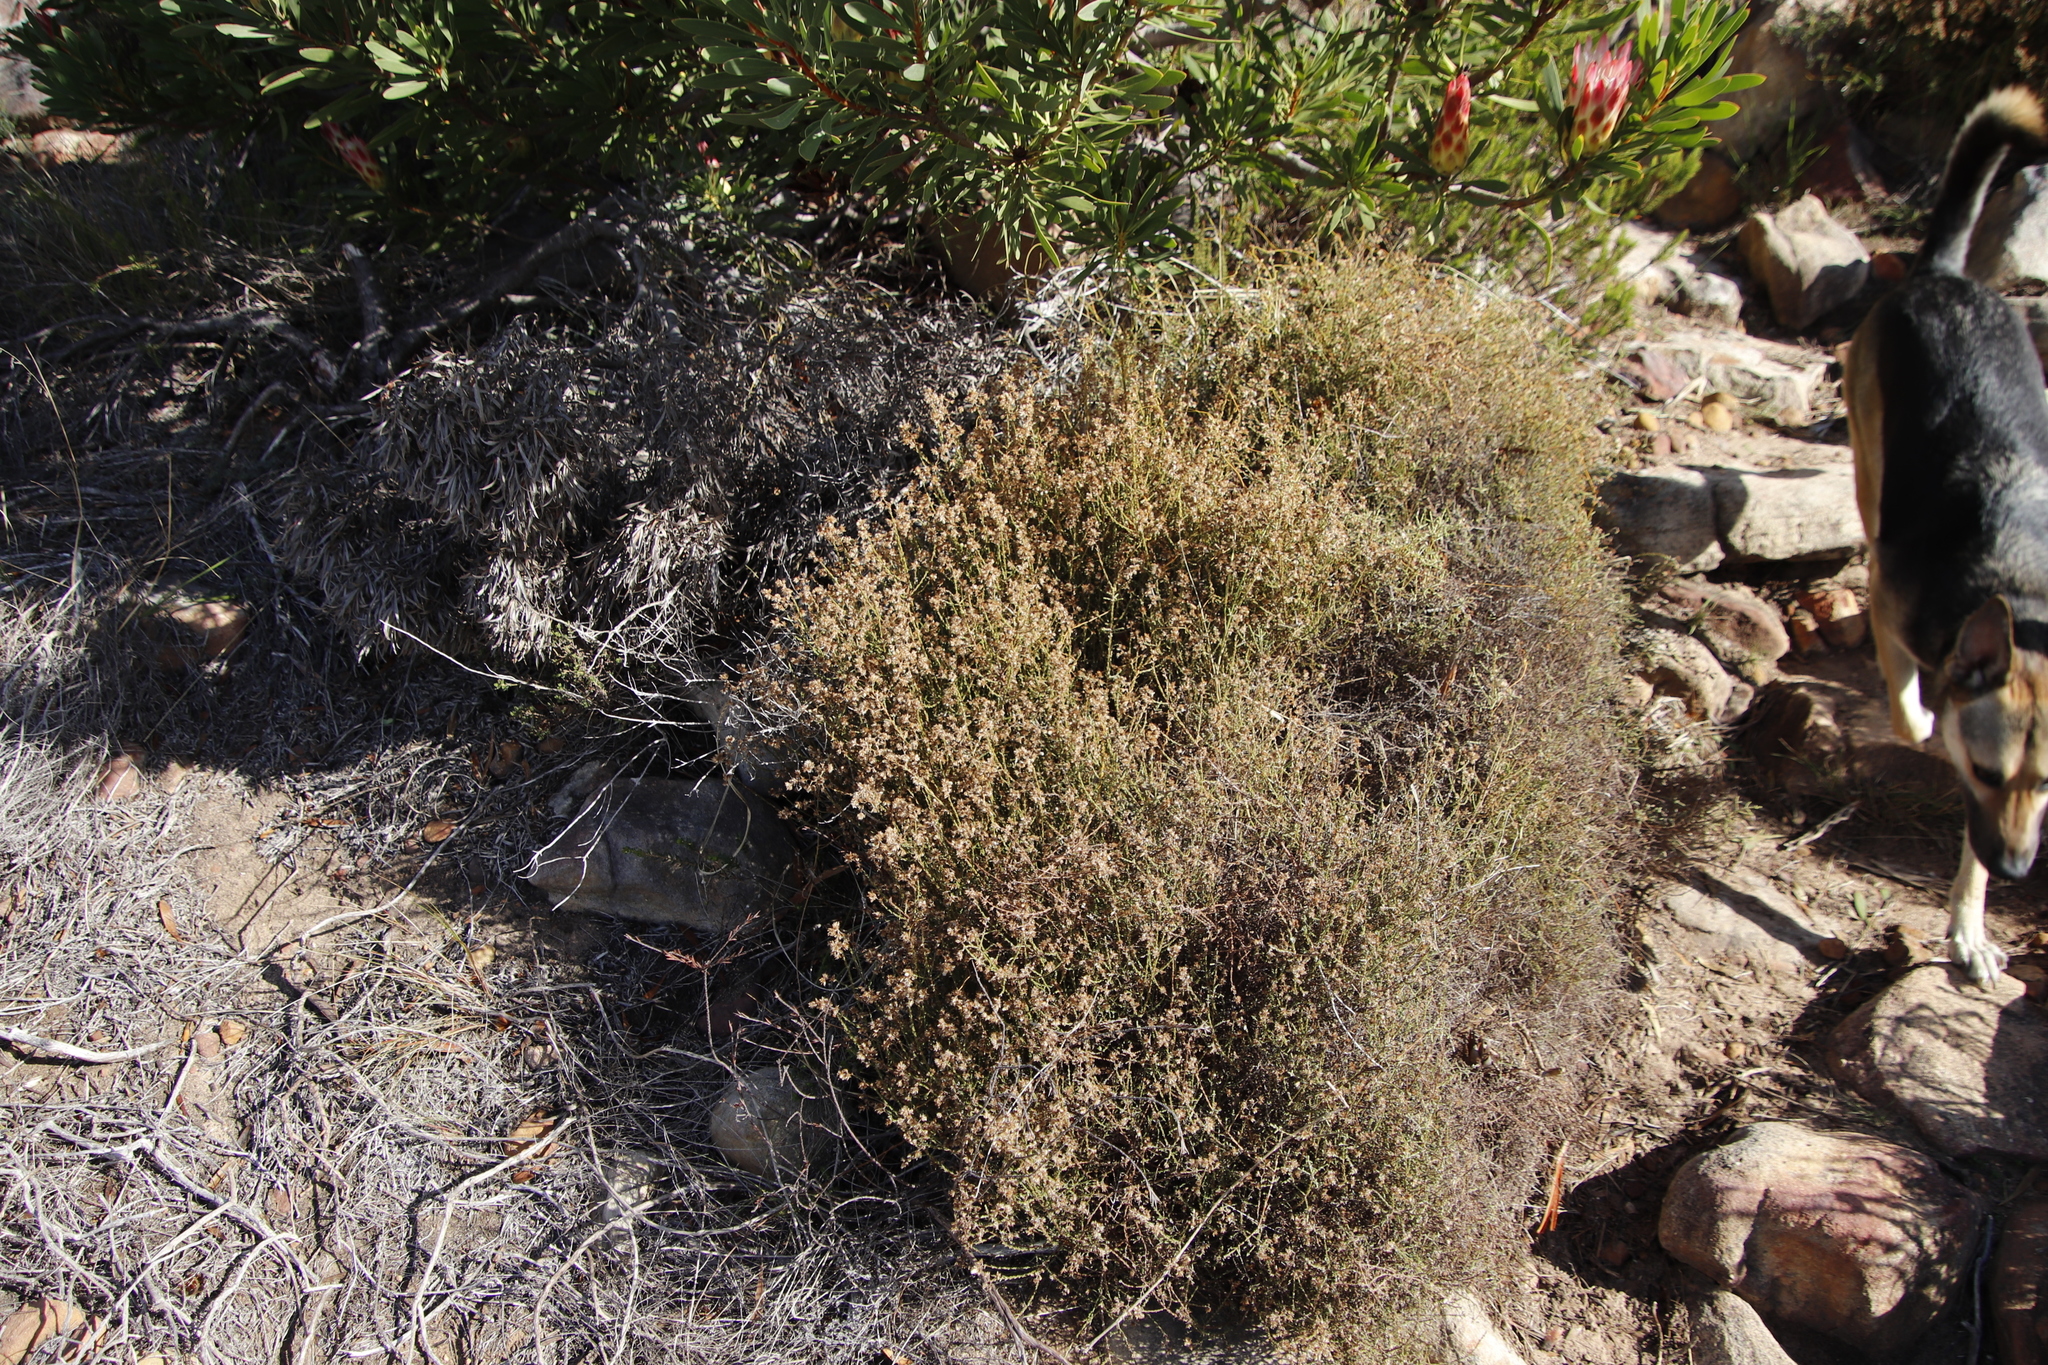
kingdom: Plantae
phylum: Tracheophyta
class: Magnoliopsida
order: Asterales
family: Asteraceae
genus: Myrovernix
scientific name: Myrovernix scaber
